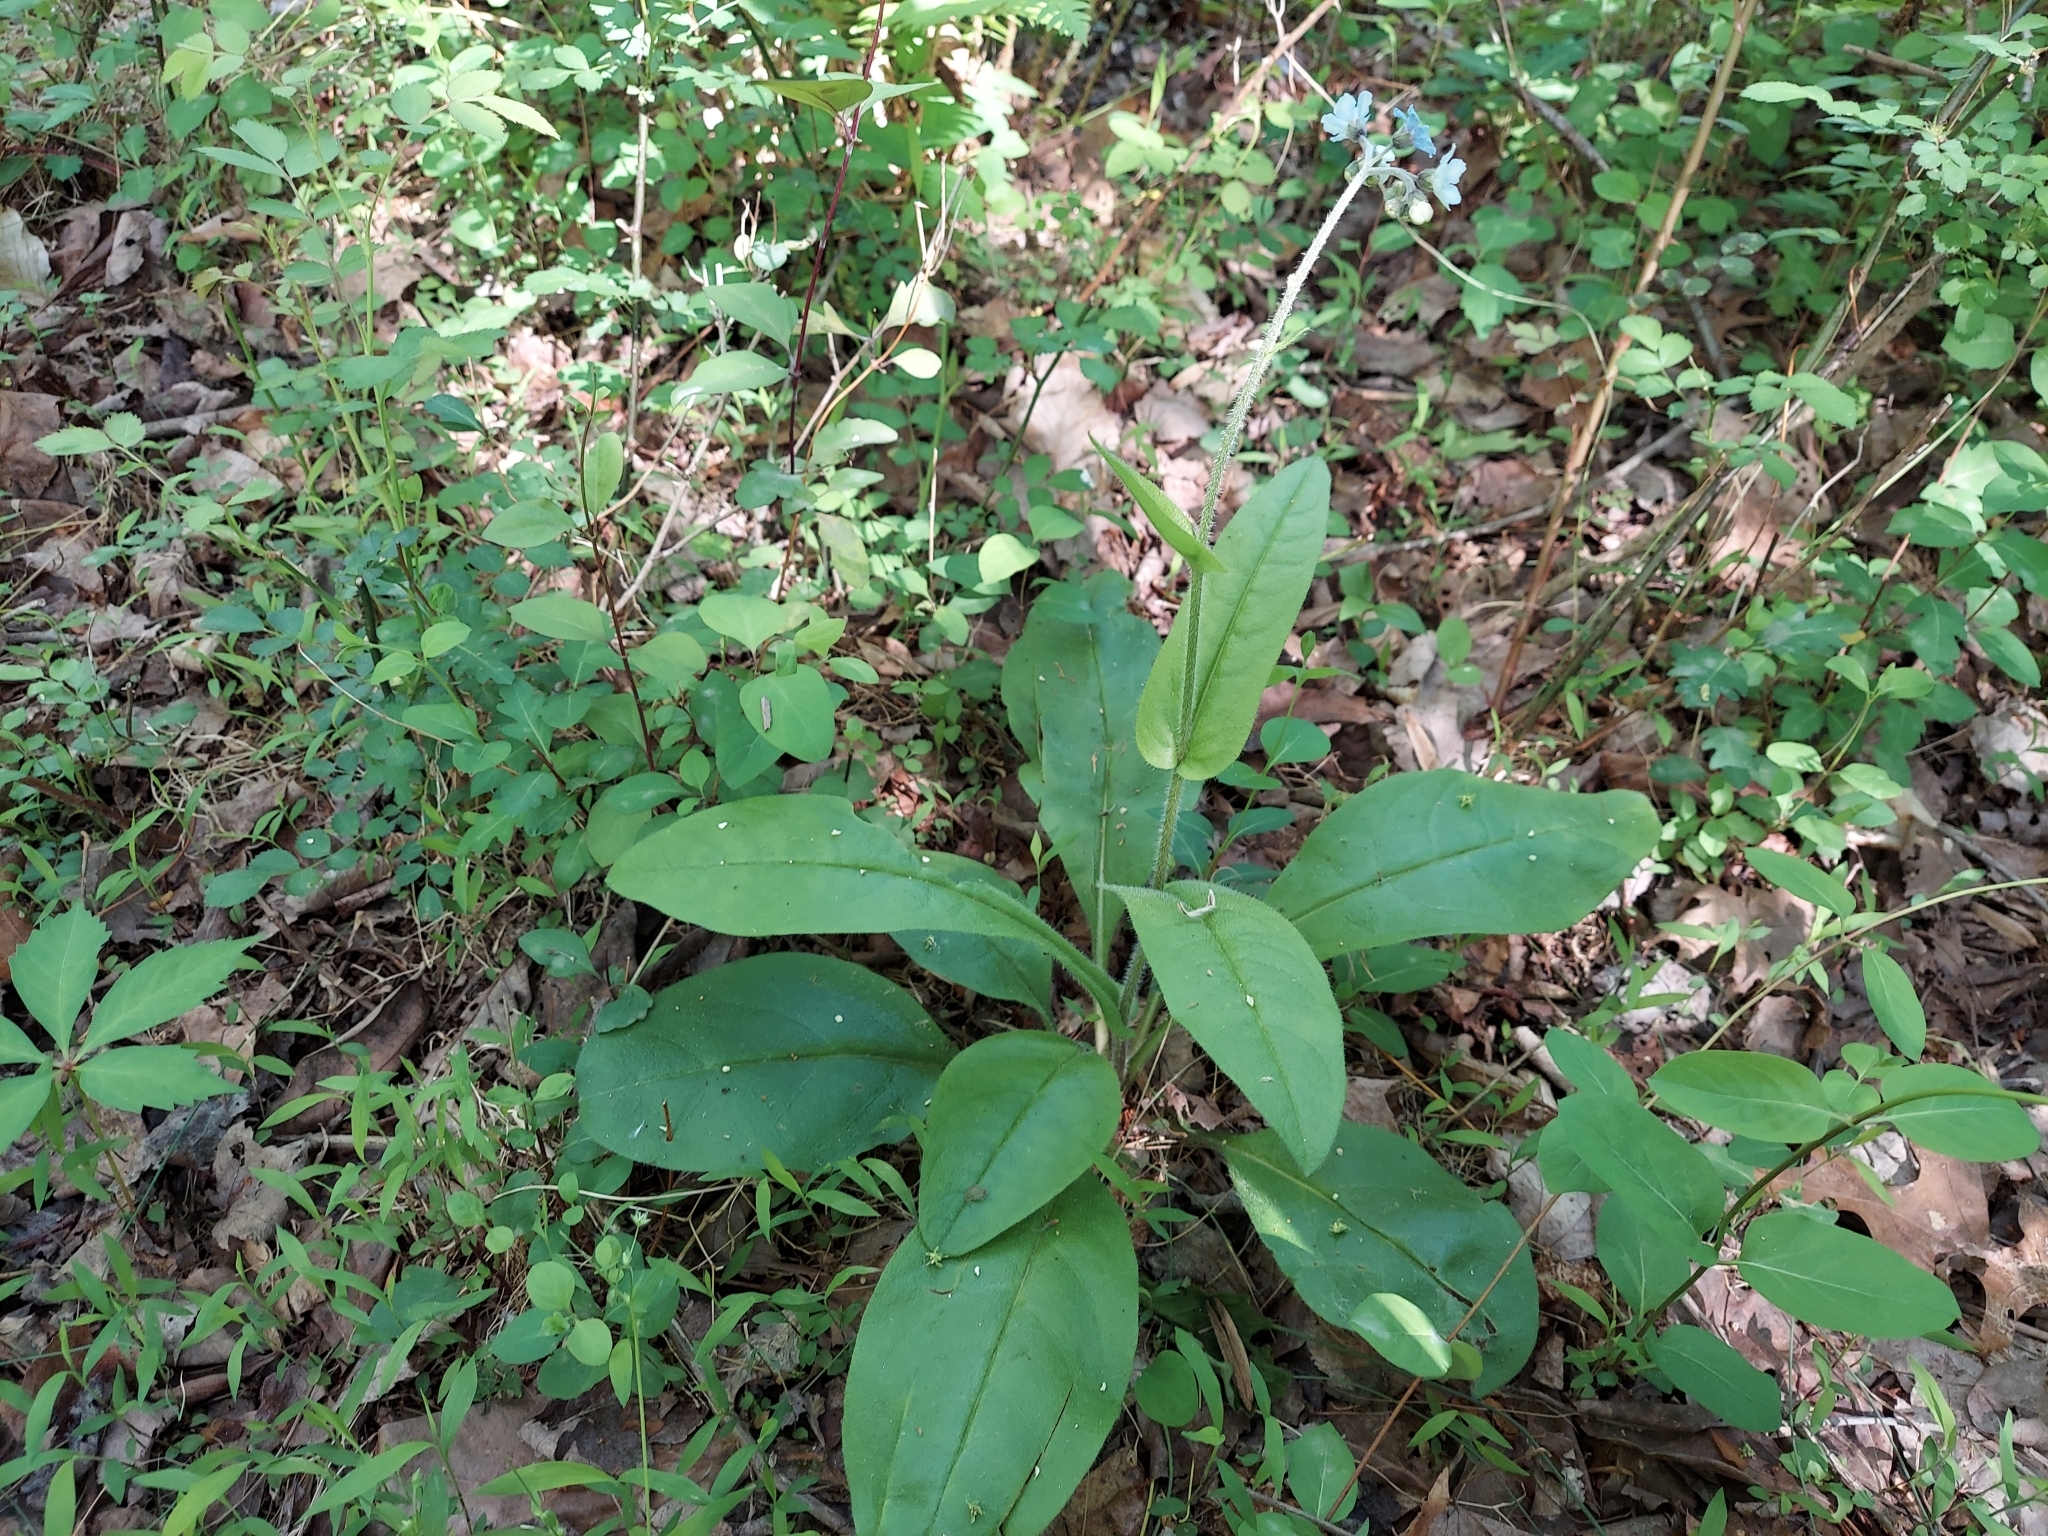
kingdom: Plantae
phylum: Tracheophyta
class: Magnoliopsida
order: Boraginales
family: Boraginaceae
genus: Andersonglossum
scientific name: Andersonglossum virginianum
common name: Wild comfrey
